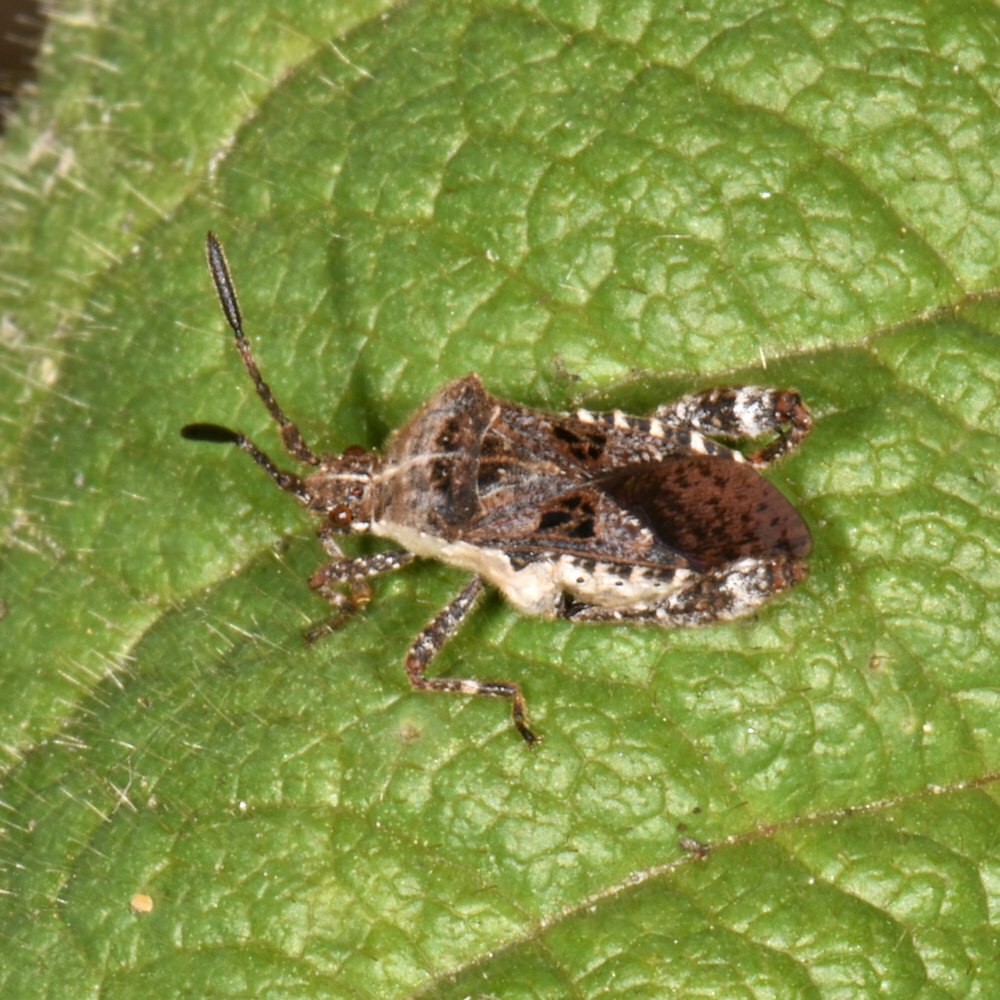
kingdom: Animalia
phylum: Arthropoda
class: Insecta
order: Hemiptera
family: Coreidae
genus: Merocoris
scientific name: Merocoris distinctus
